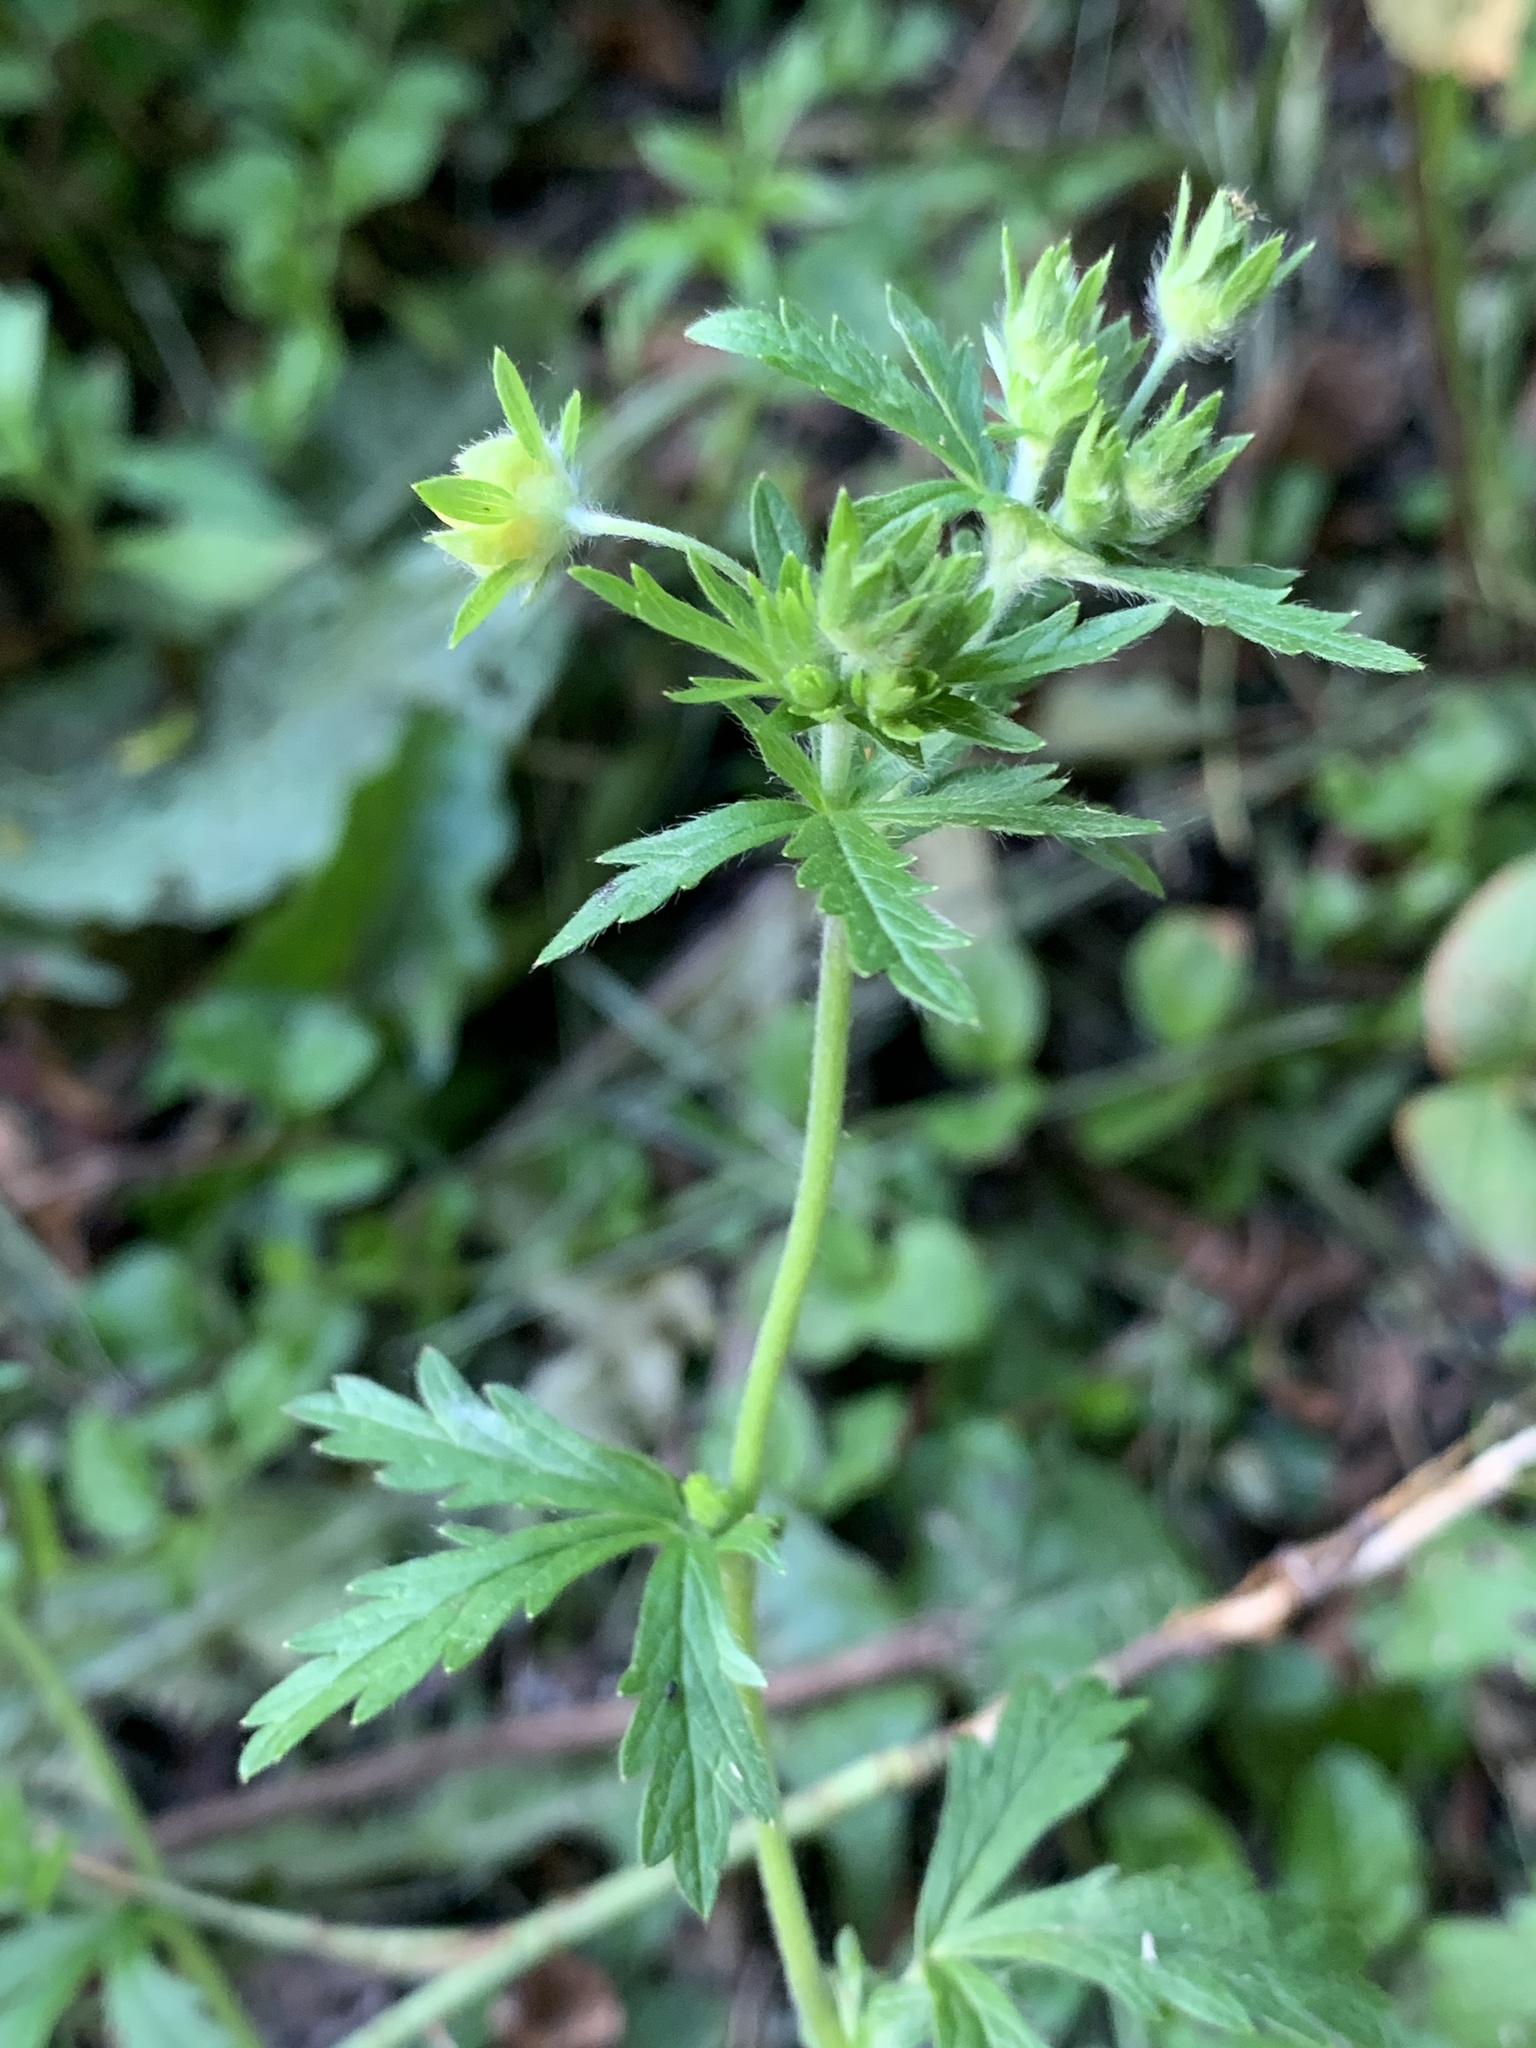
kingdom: Plantae
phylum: Tracheophyta
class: Magnoliopsida
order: Rosales
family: Rosaceae
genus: Potentilla
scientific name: Potentilla intermedia
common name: Downy cinquefoil
